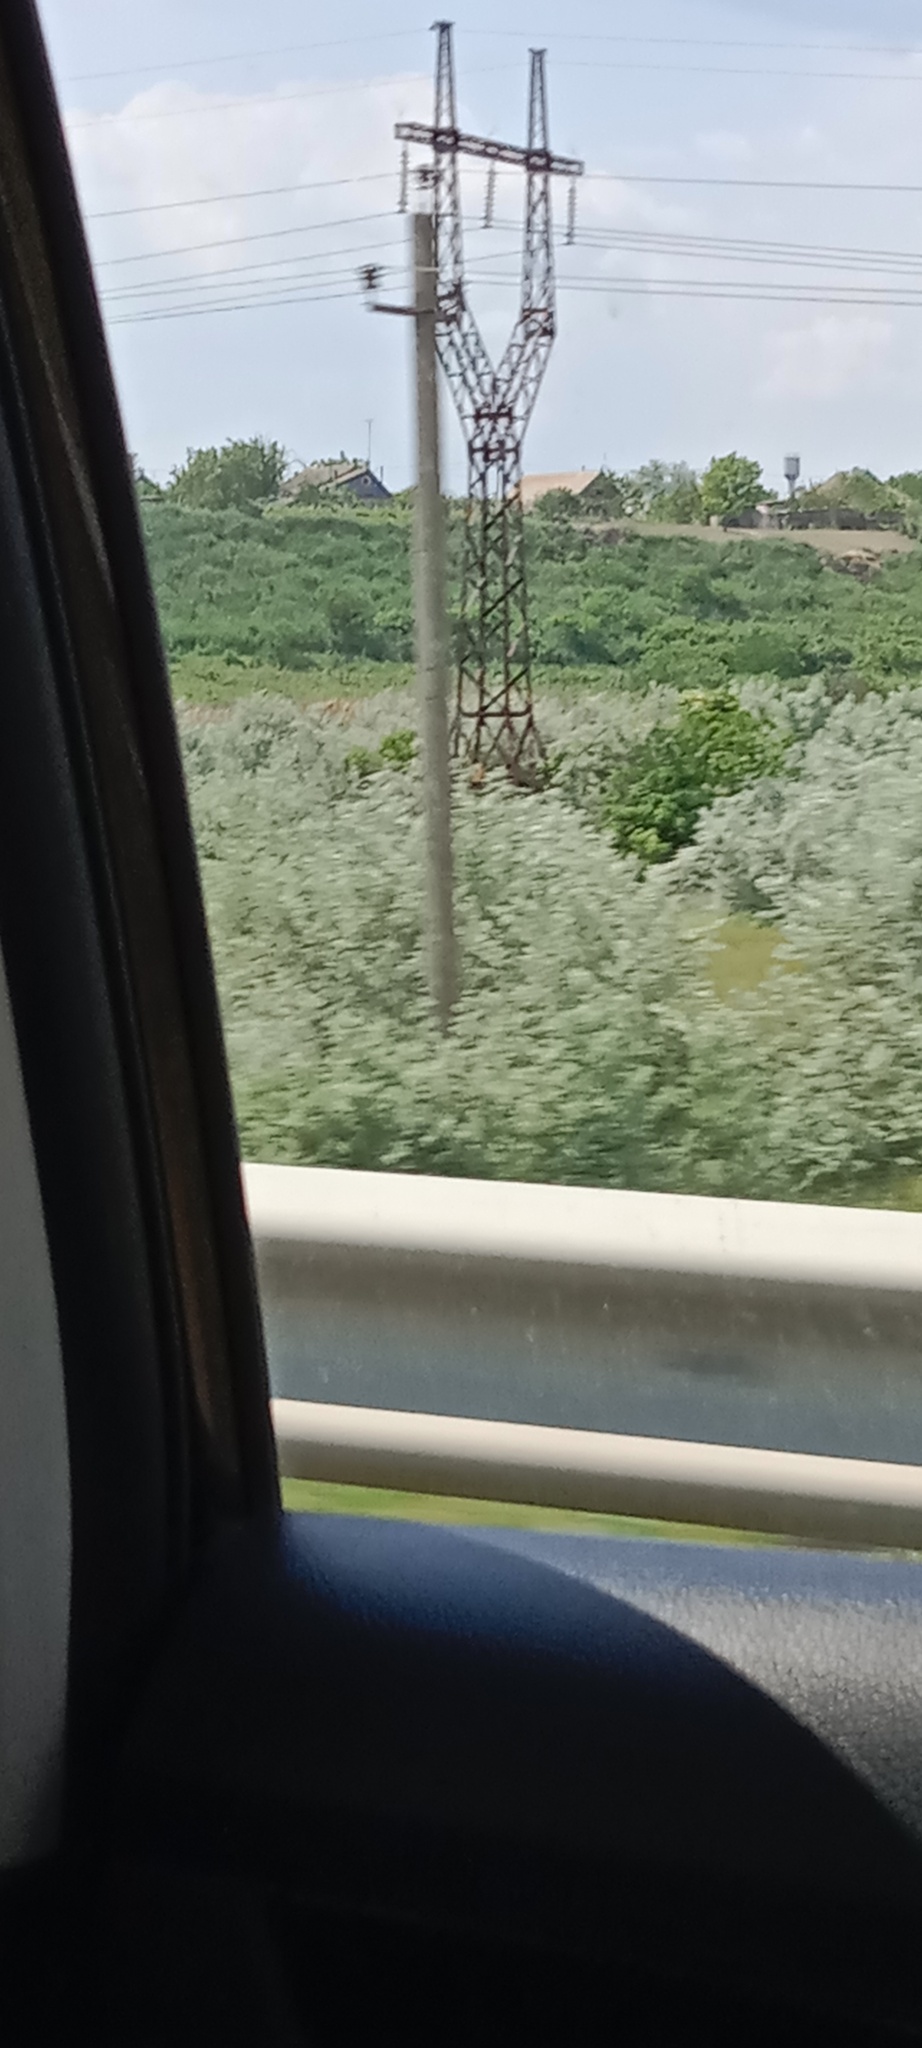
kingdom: Plantae
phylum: Tracheophyta
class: Magnoliopsida
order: Rosales
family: Elaeagnaceae
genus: Elaeagnus
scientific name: Elaeagnus angustifolia
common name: Russian olive
